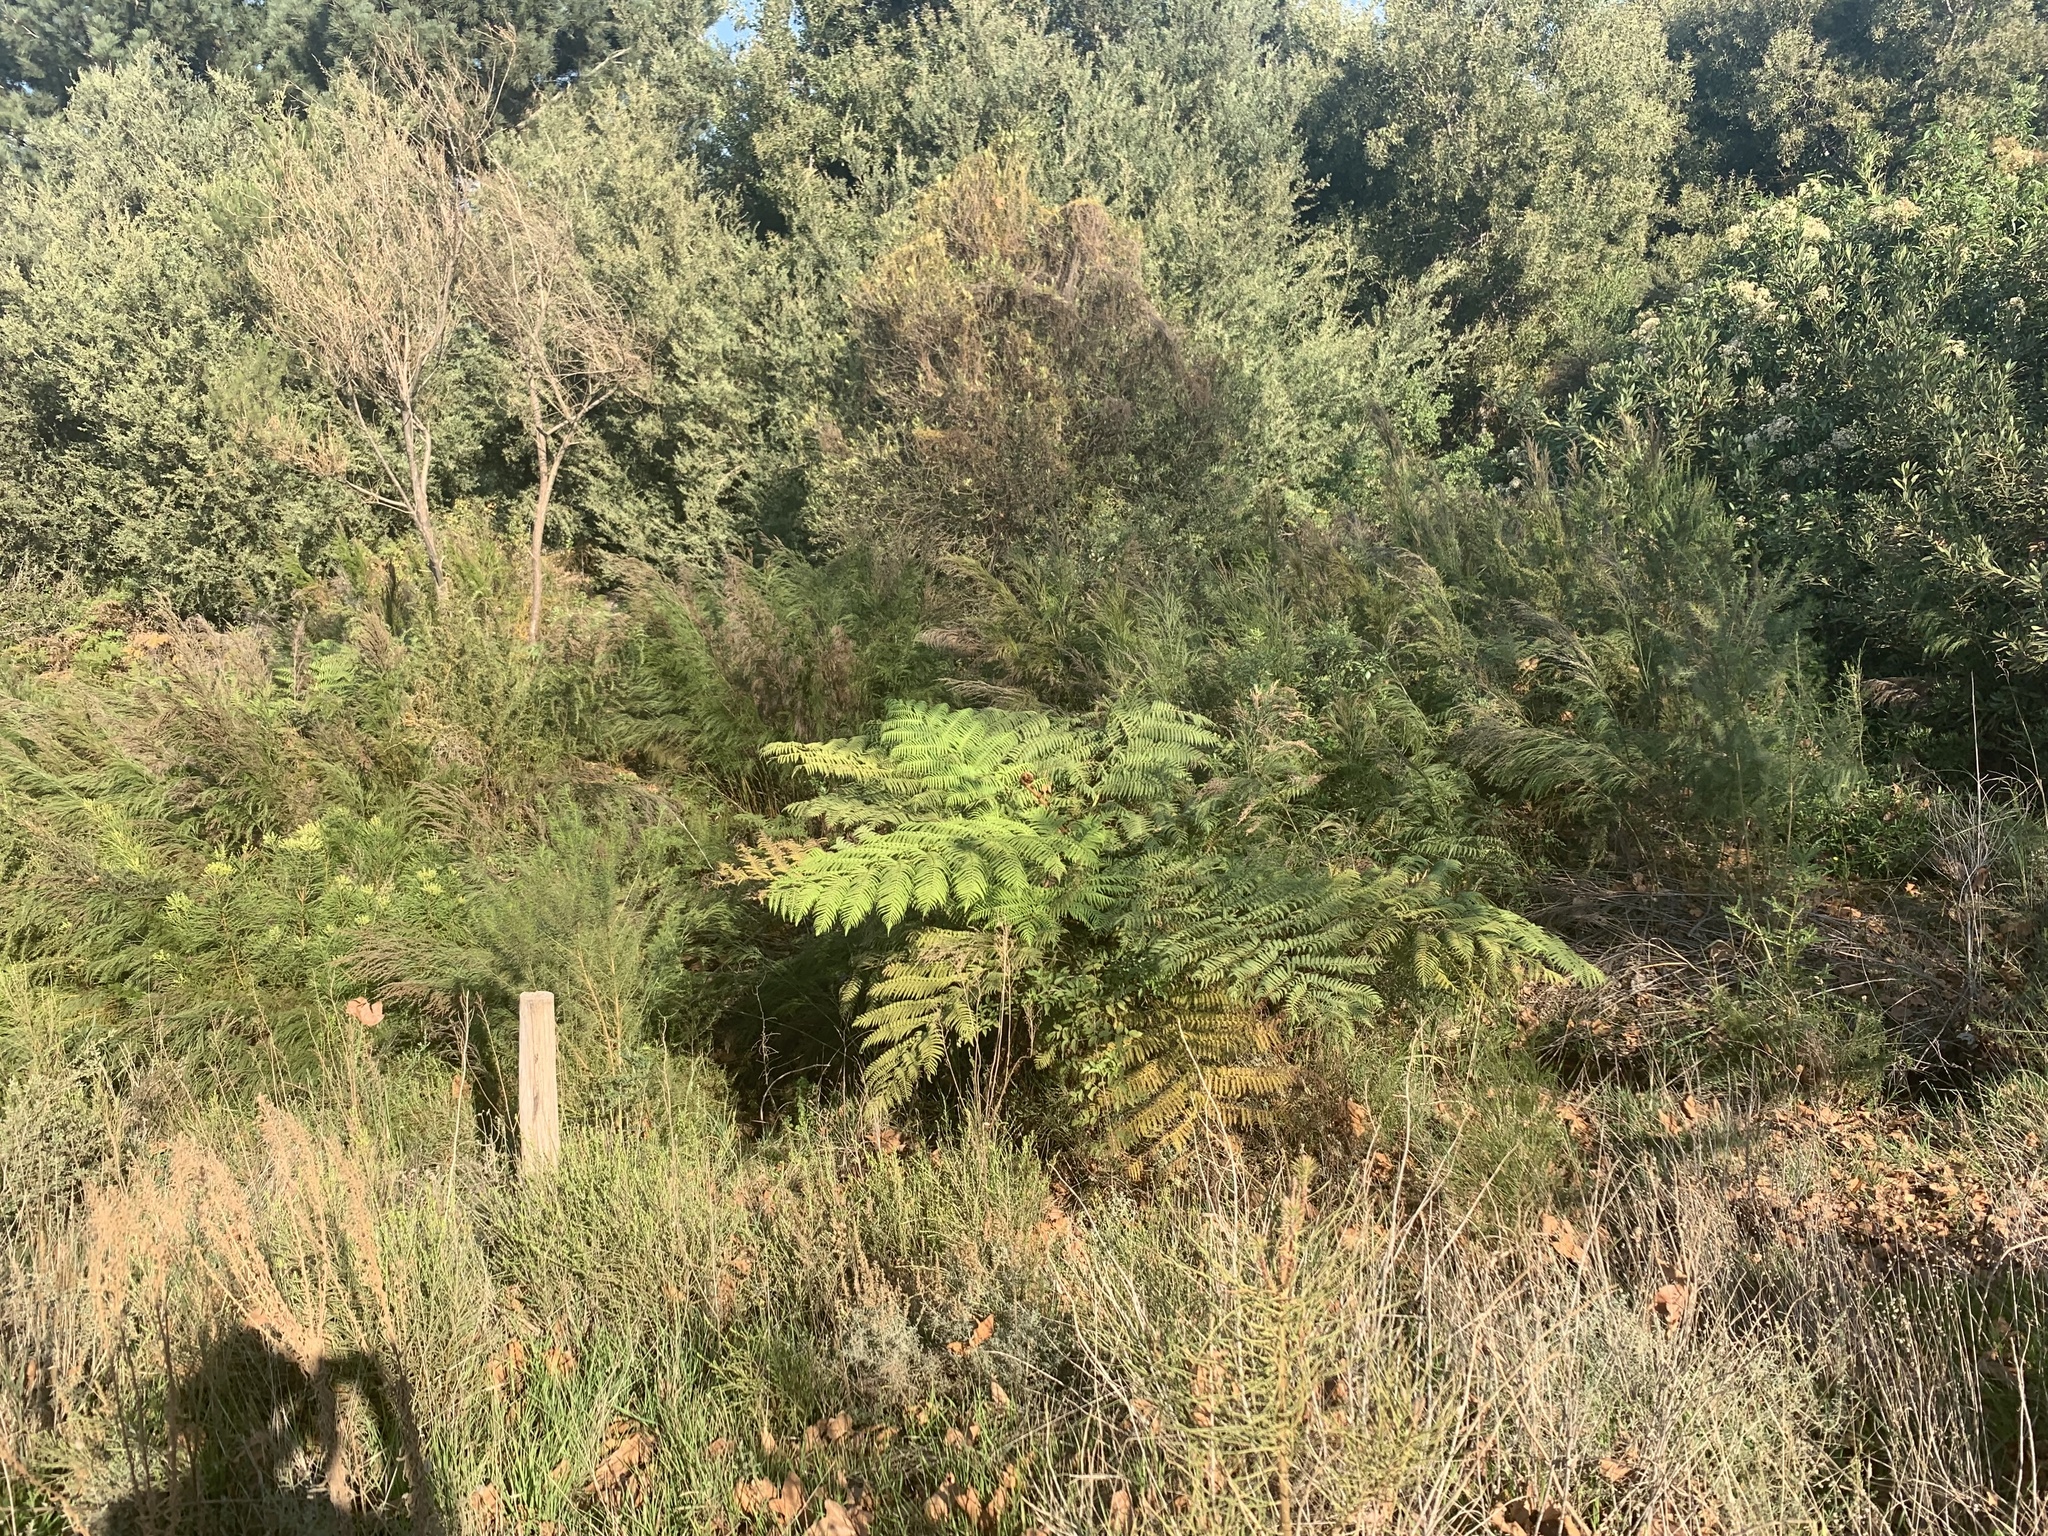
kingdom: Plantae
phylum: Tracheophyta
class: Polypodiopsida
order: Cyatheales
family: Cyatheaceae
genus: Sphaeropteris
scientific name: Sphaeropteris cooperi
